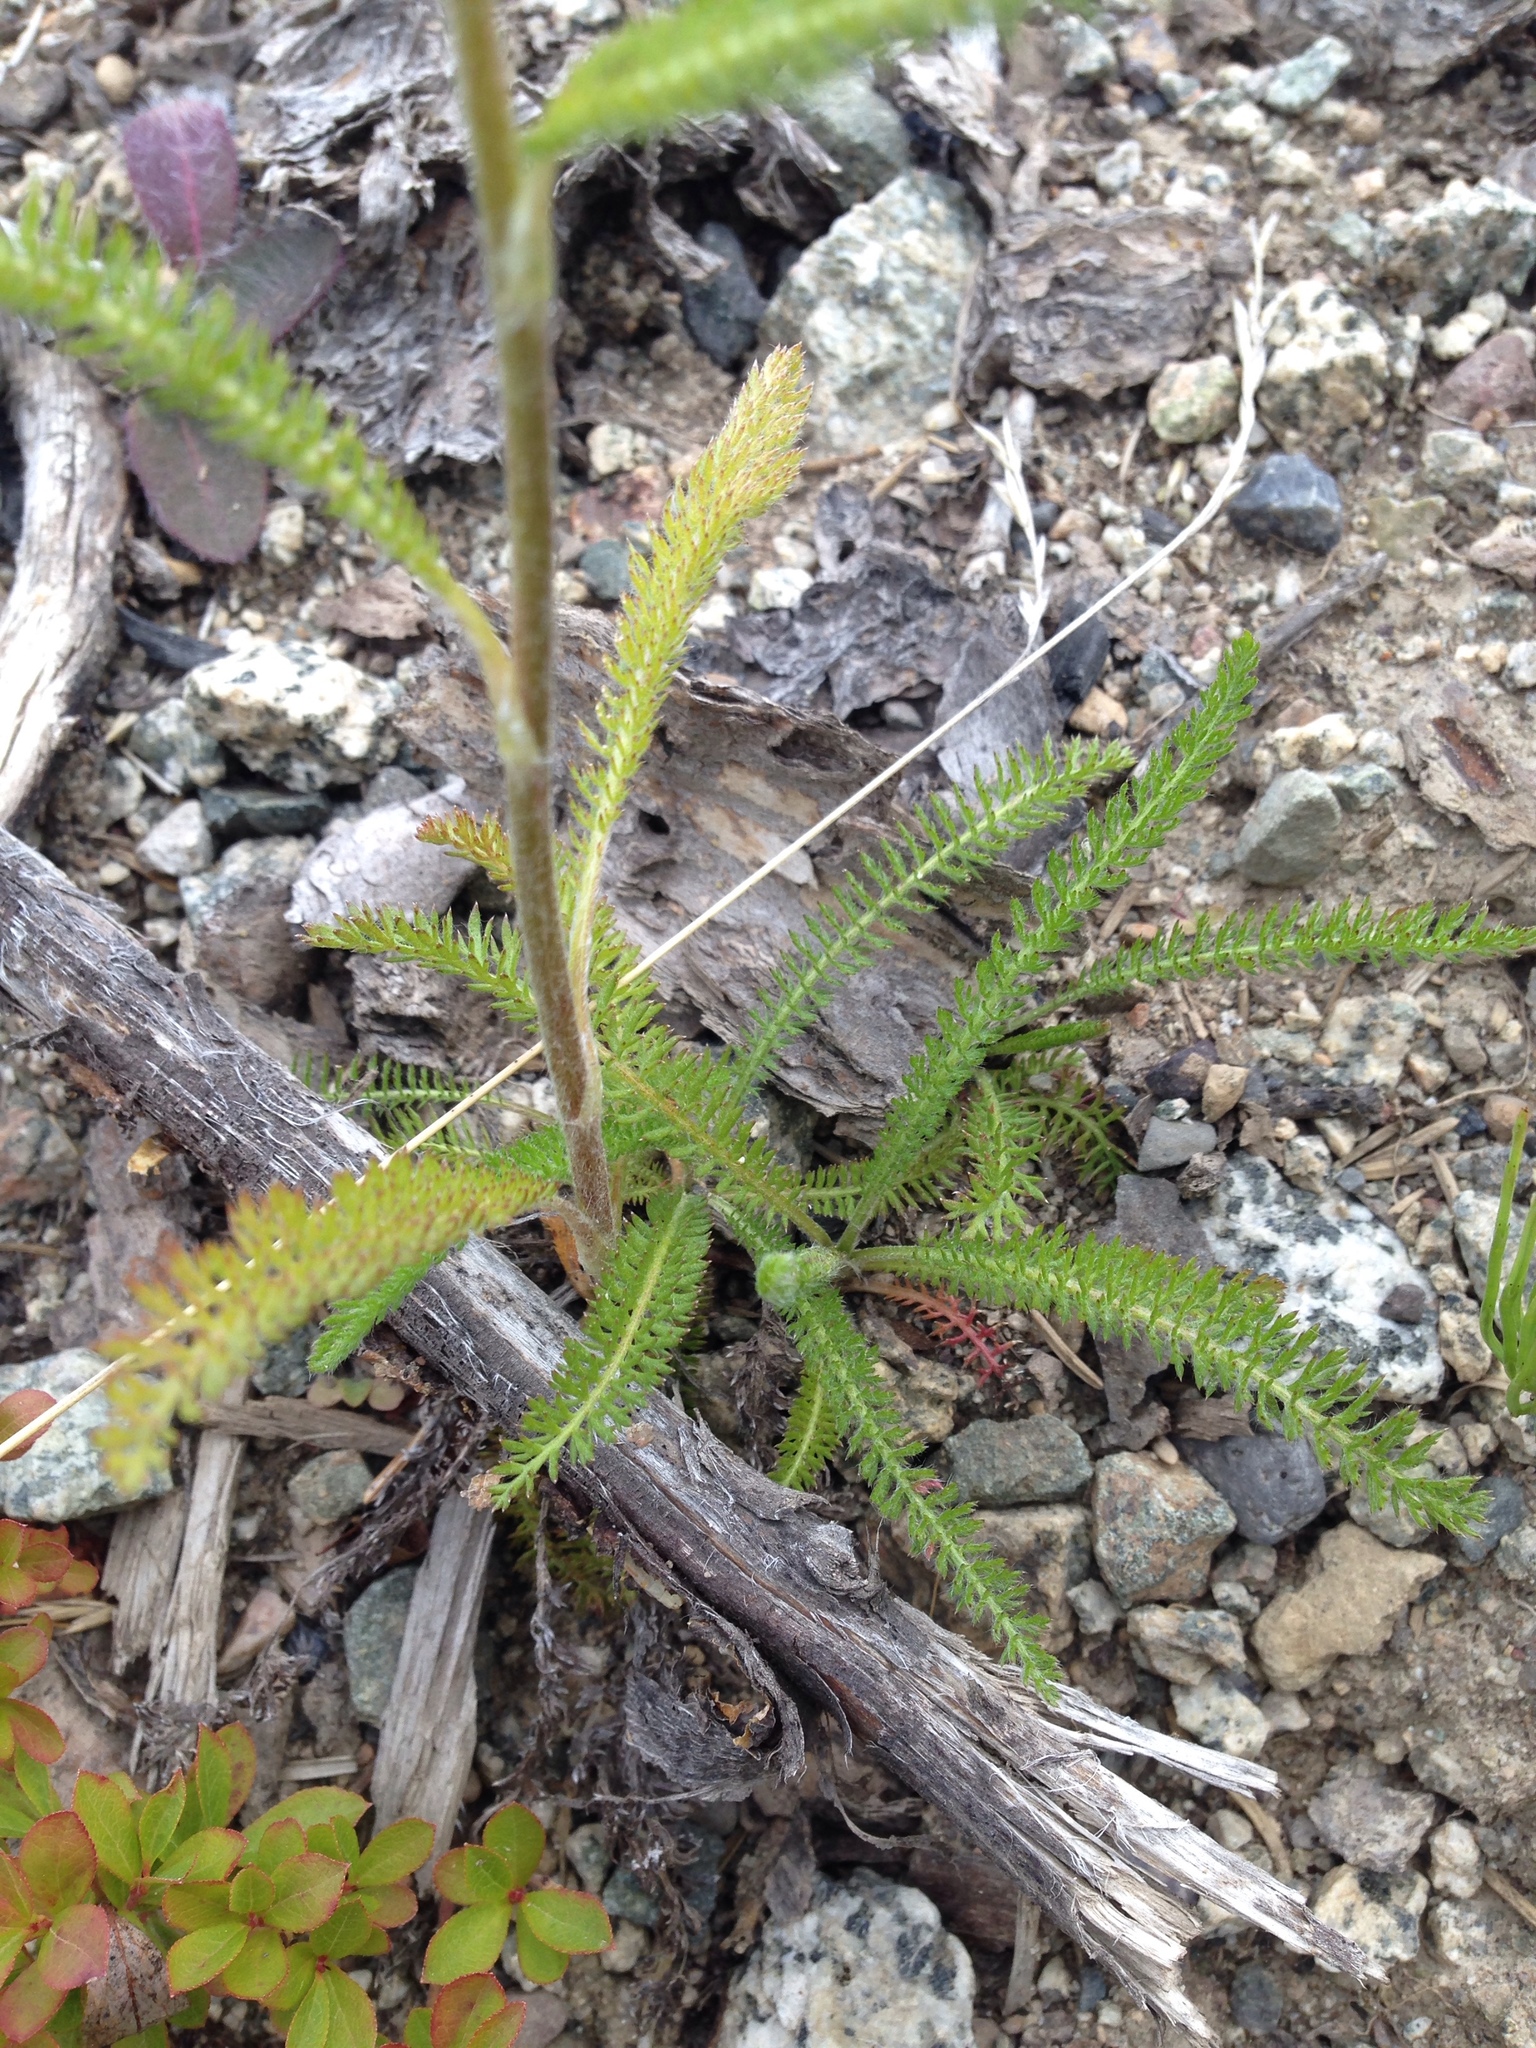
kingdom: Plantae
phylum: Tracheophyta
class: Magnoliopsida
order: Asterales
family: Asteraceae
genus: Achillea
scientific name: Achillea millefolium
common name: Yarrow
